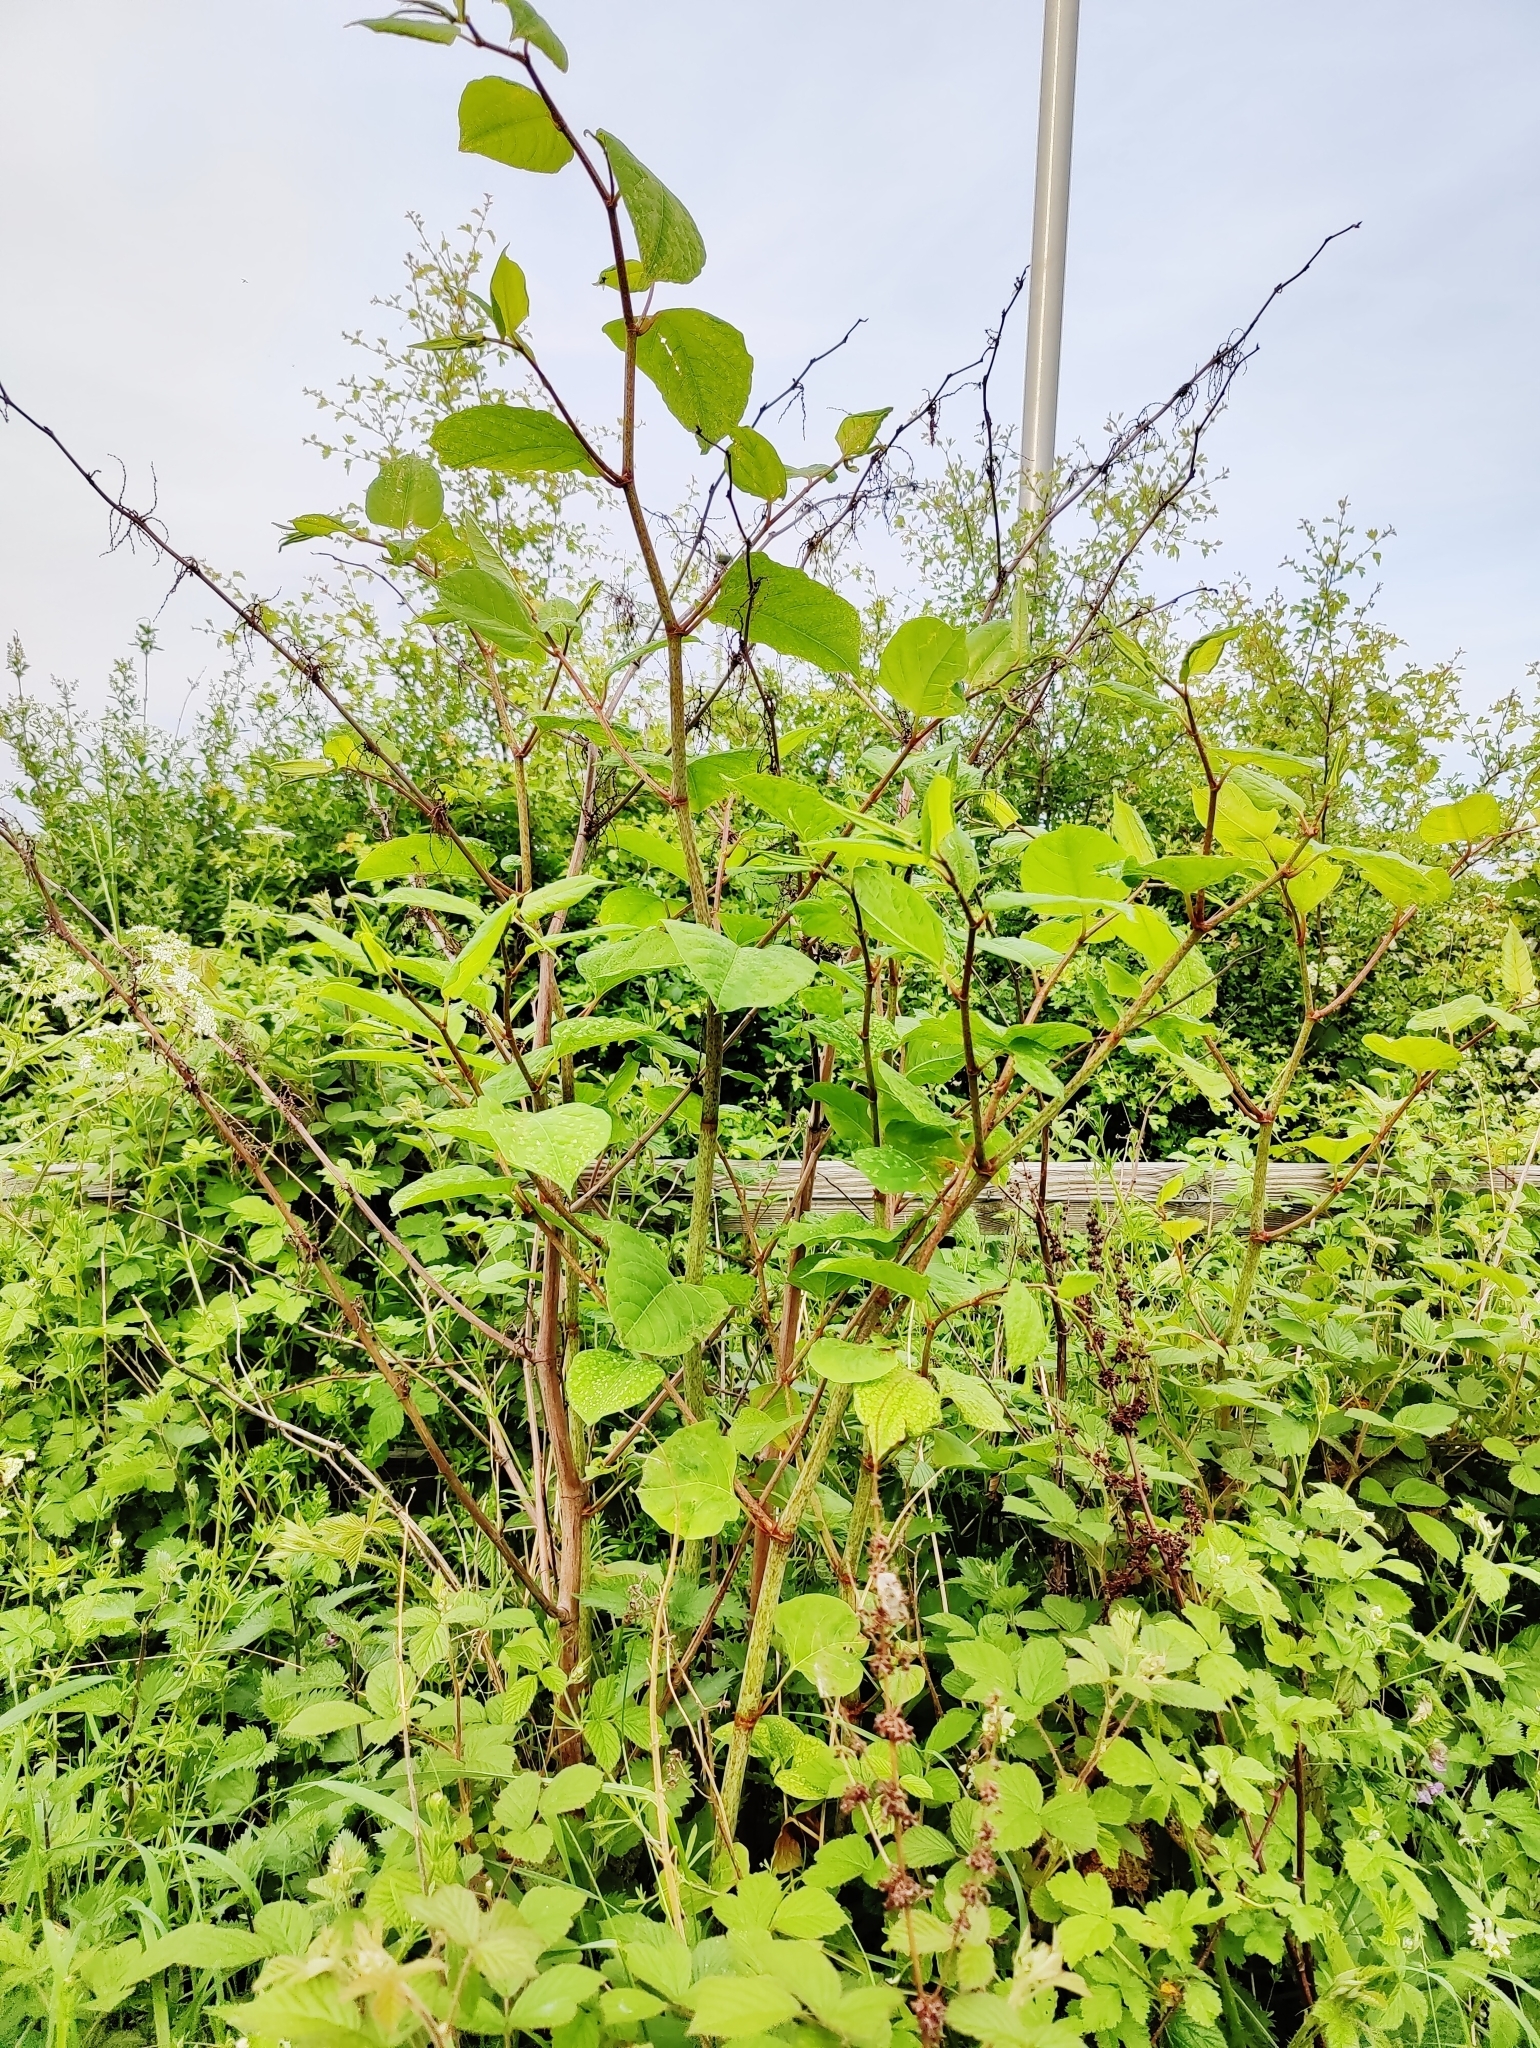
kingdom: Plantae
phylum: Tracheophyta
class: Magnoliopsida
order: Caryophyllales
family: Polygonaceae
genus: Reynoutria
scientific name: Reynoutria japonica
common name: Japanese knotweed
